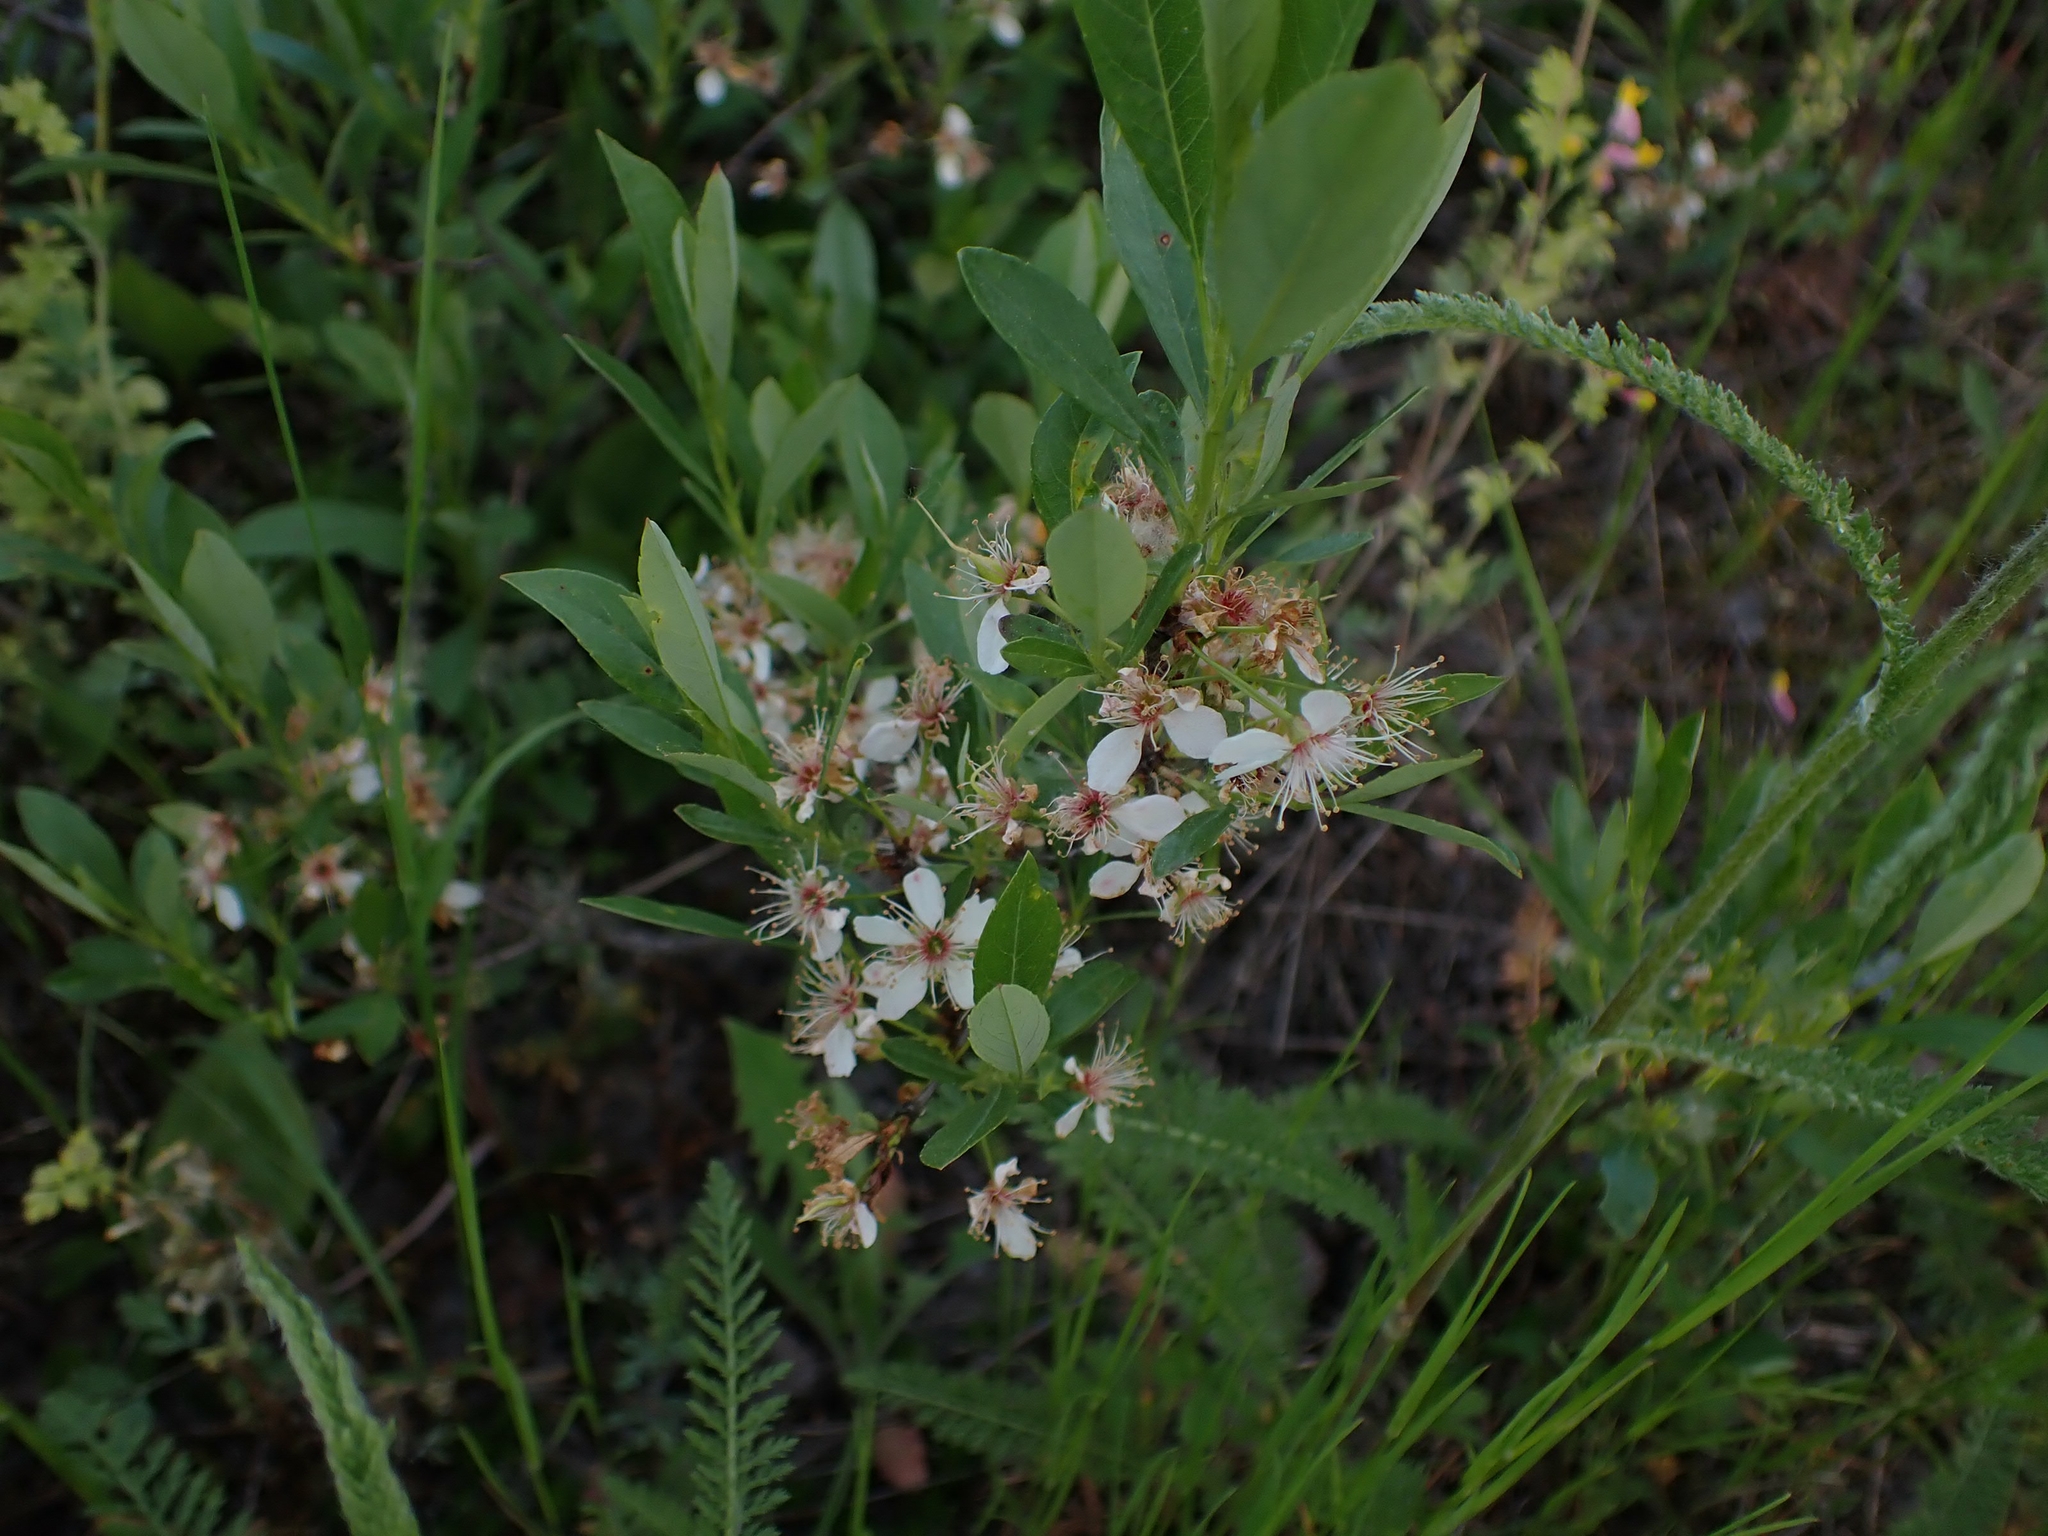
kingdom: Plantae
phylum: Tracheophyta
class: Magnoliopsida
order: Rosales
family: Rosaceae
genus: Prunus
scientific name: Prunus pumila
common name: Dwarf cherry
